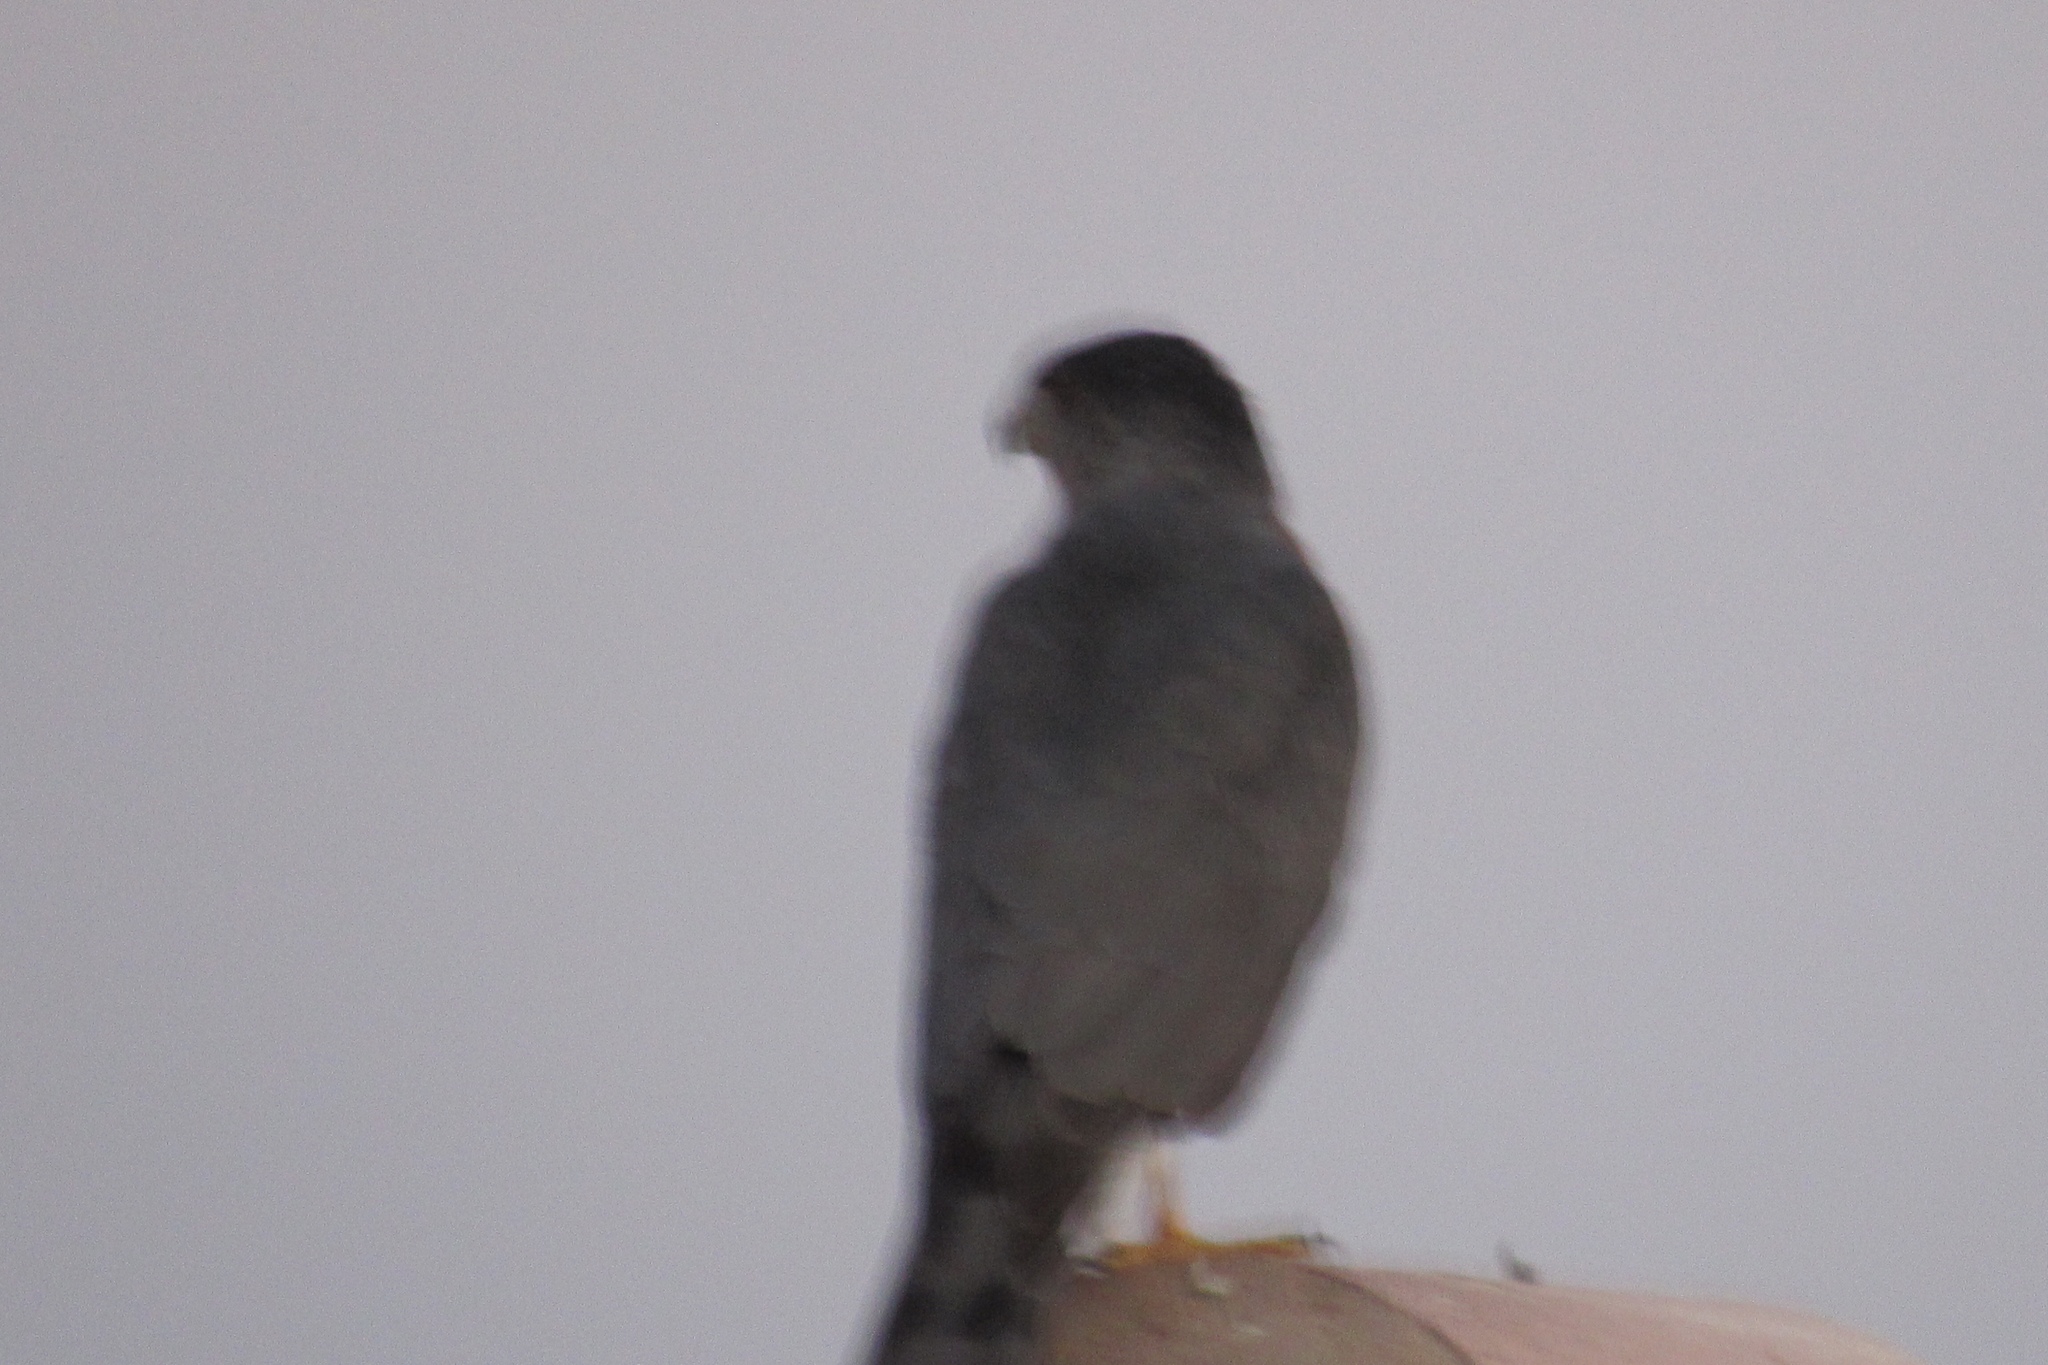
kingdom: Animalia
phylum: Chordata
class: Aves
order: Accipitriformes
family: Accipitridae
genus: Accipiter
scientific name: Accipiter cooperii
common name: Cooper's hawk
